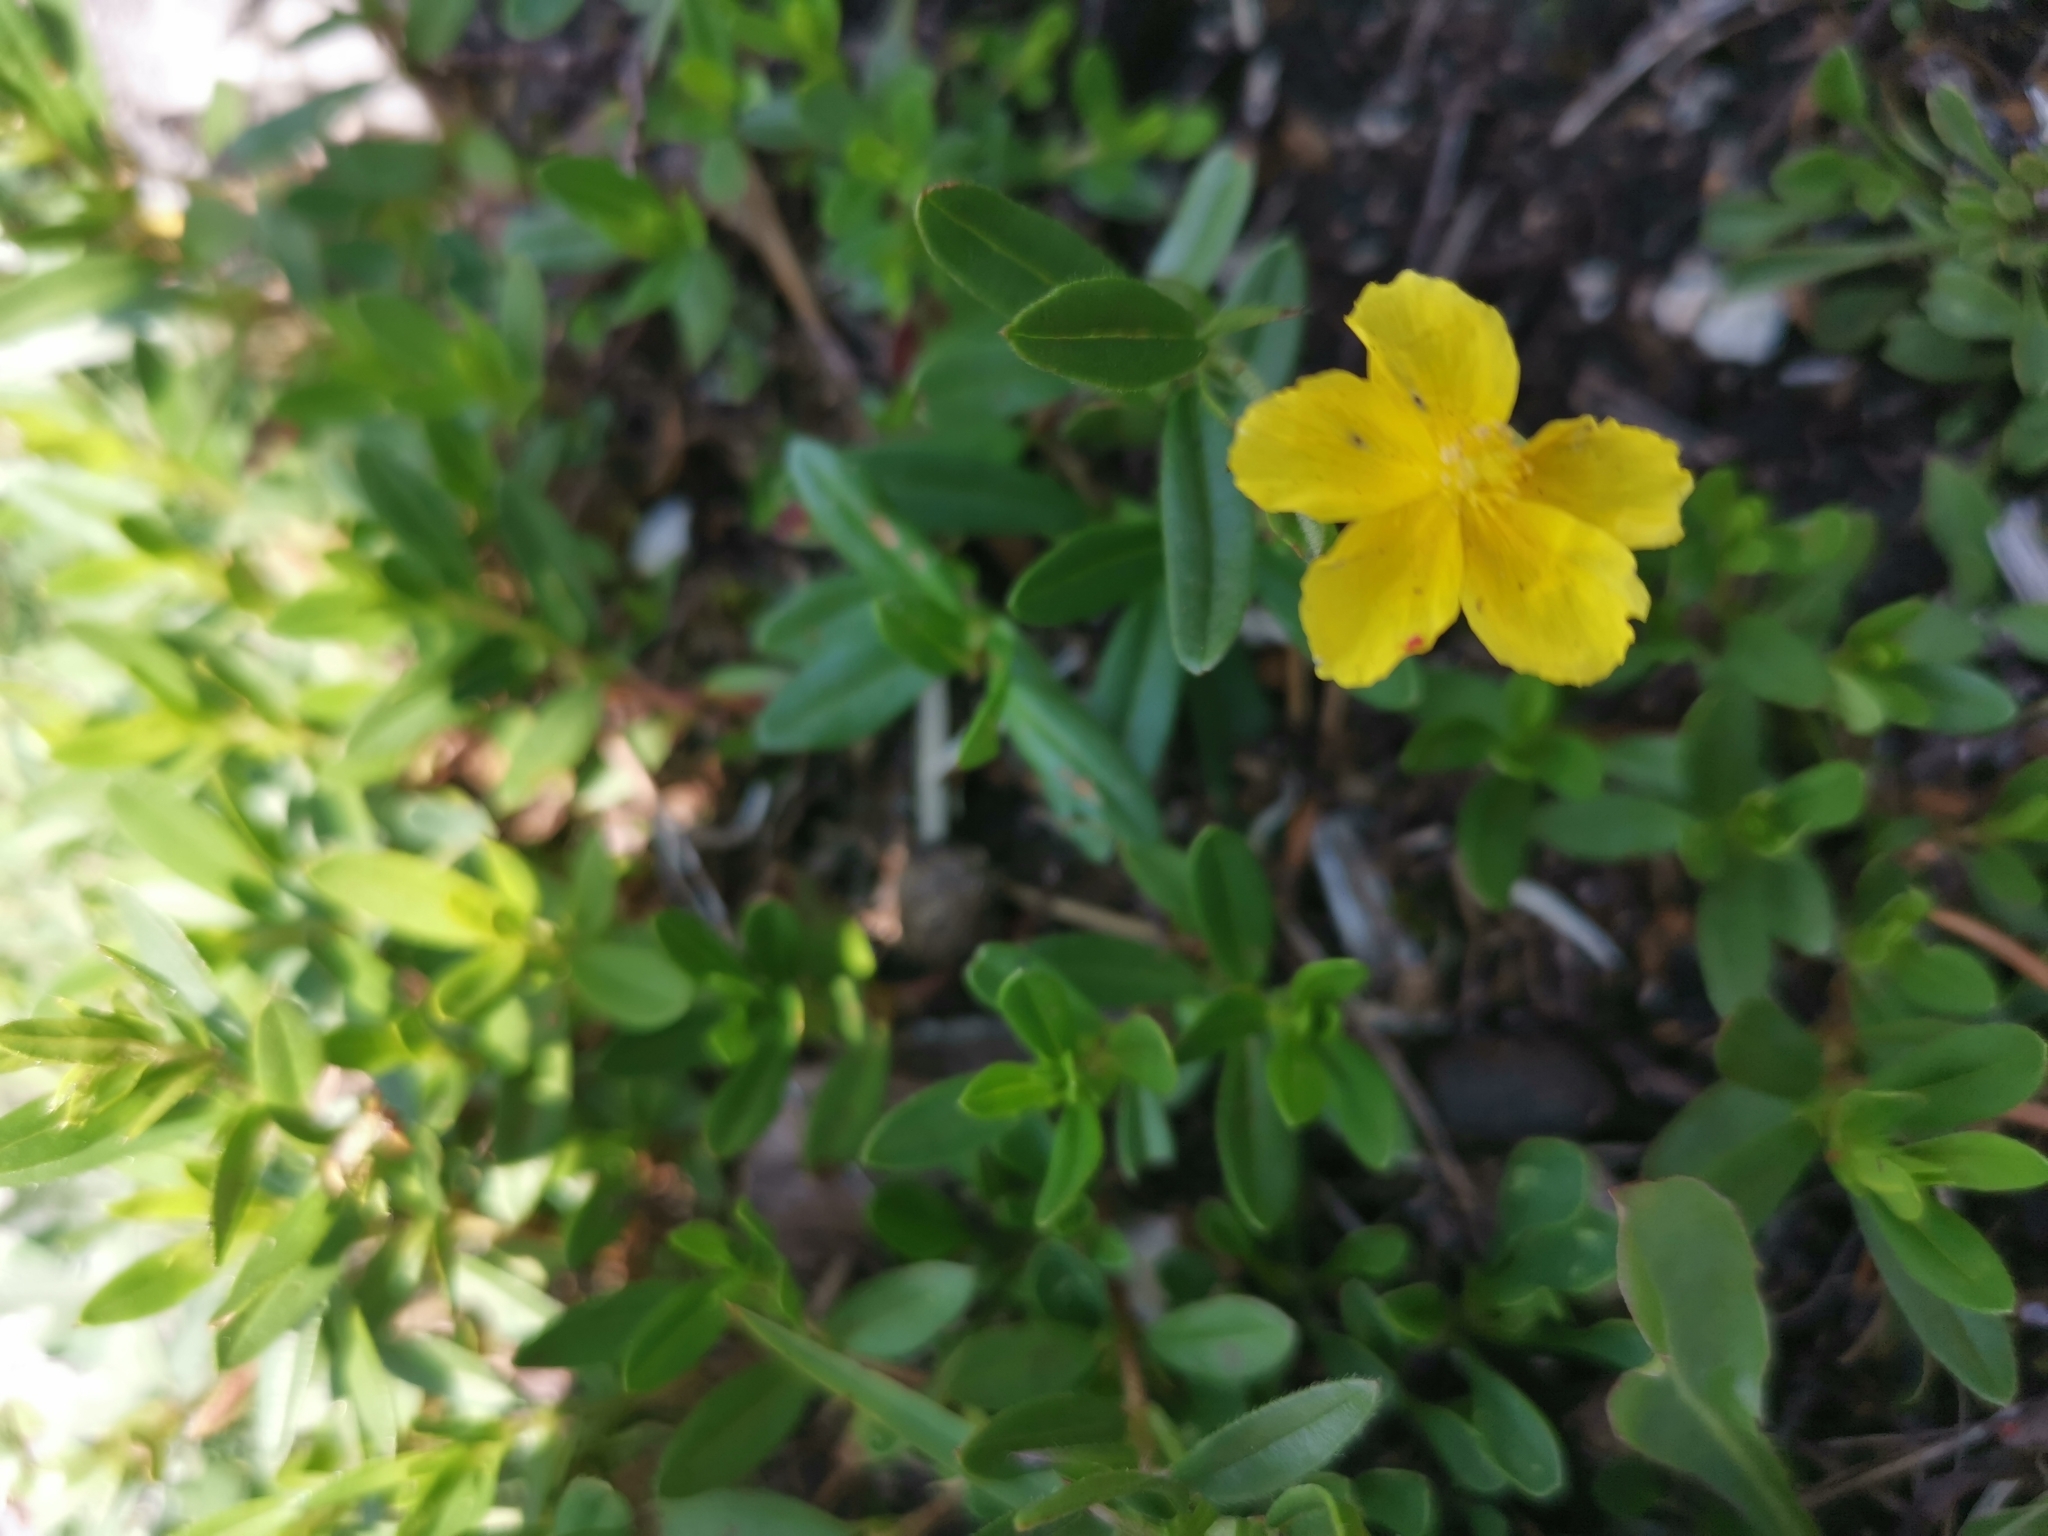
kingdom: Plantae
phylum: Tracheophyta
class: Magnoliopsida
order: Malvales
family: Cistaceae
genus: Helianthemum
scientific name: Helianthemum nummularium
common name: Common rock-rose
